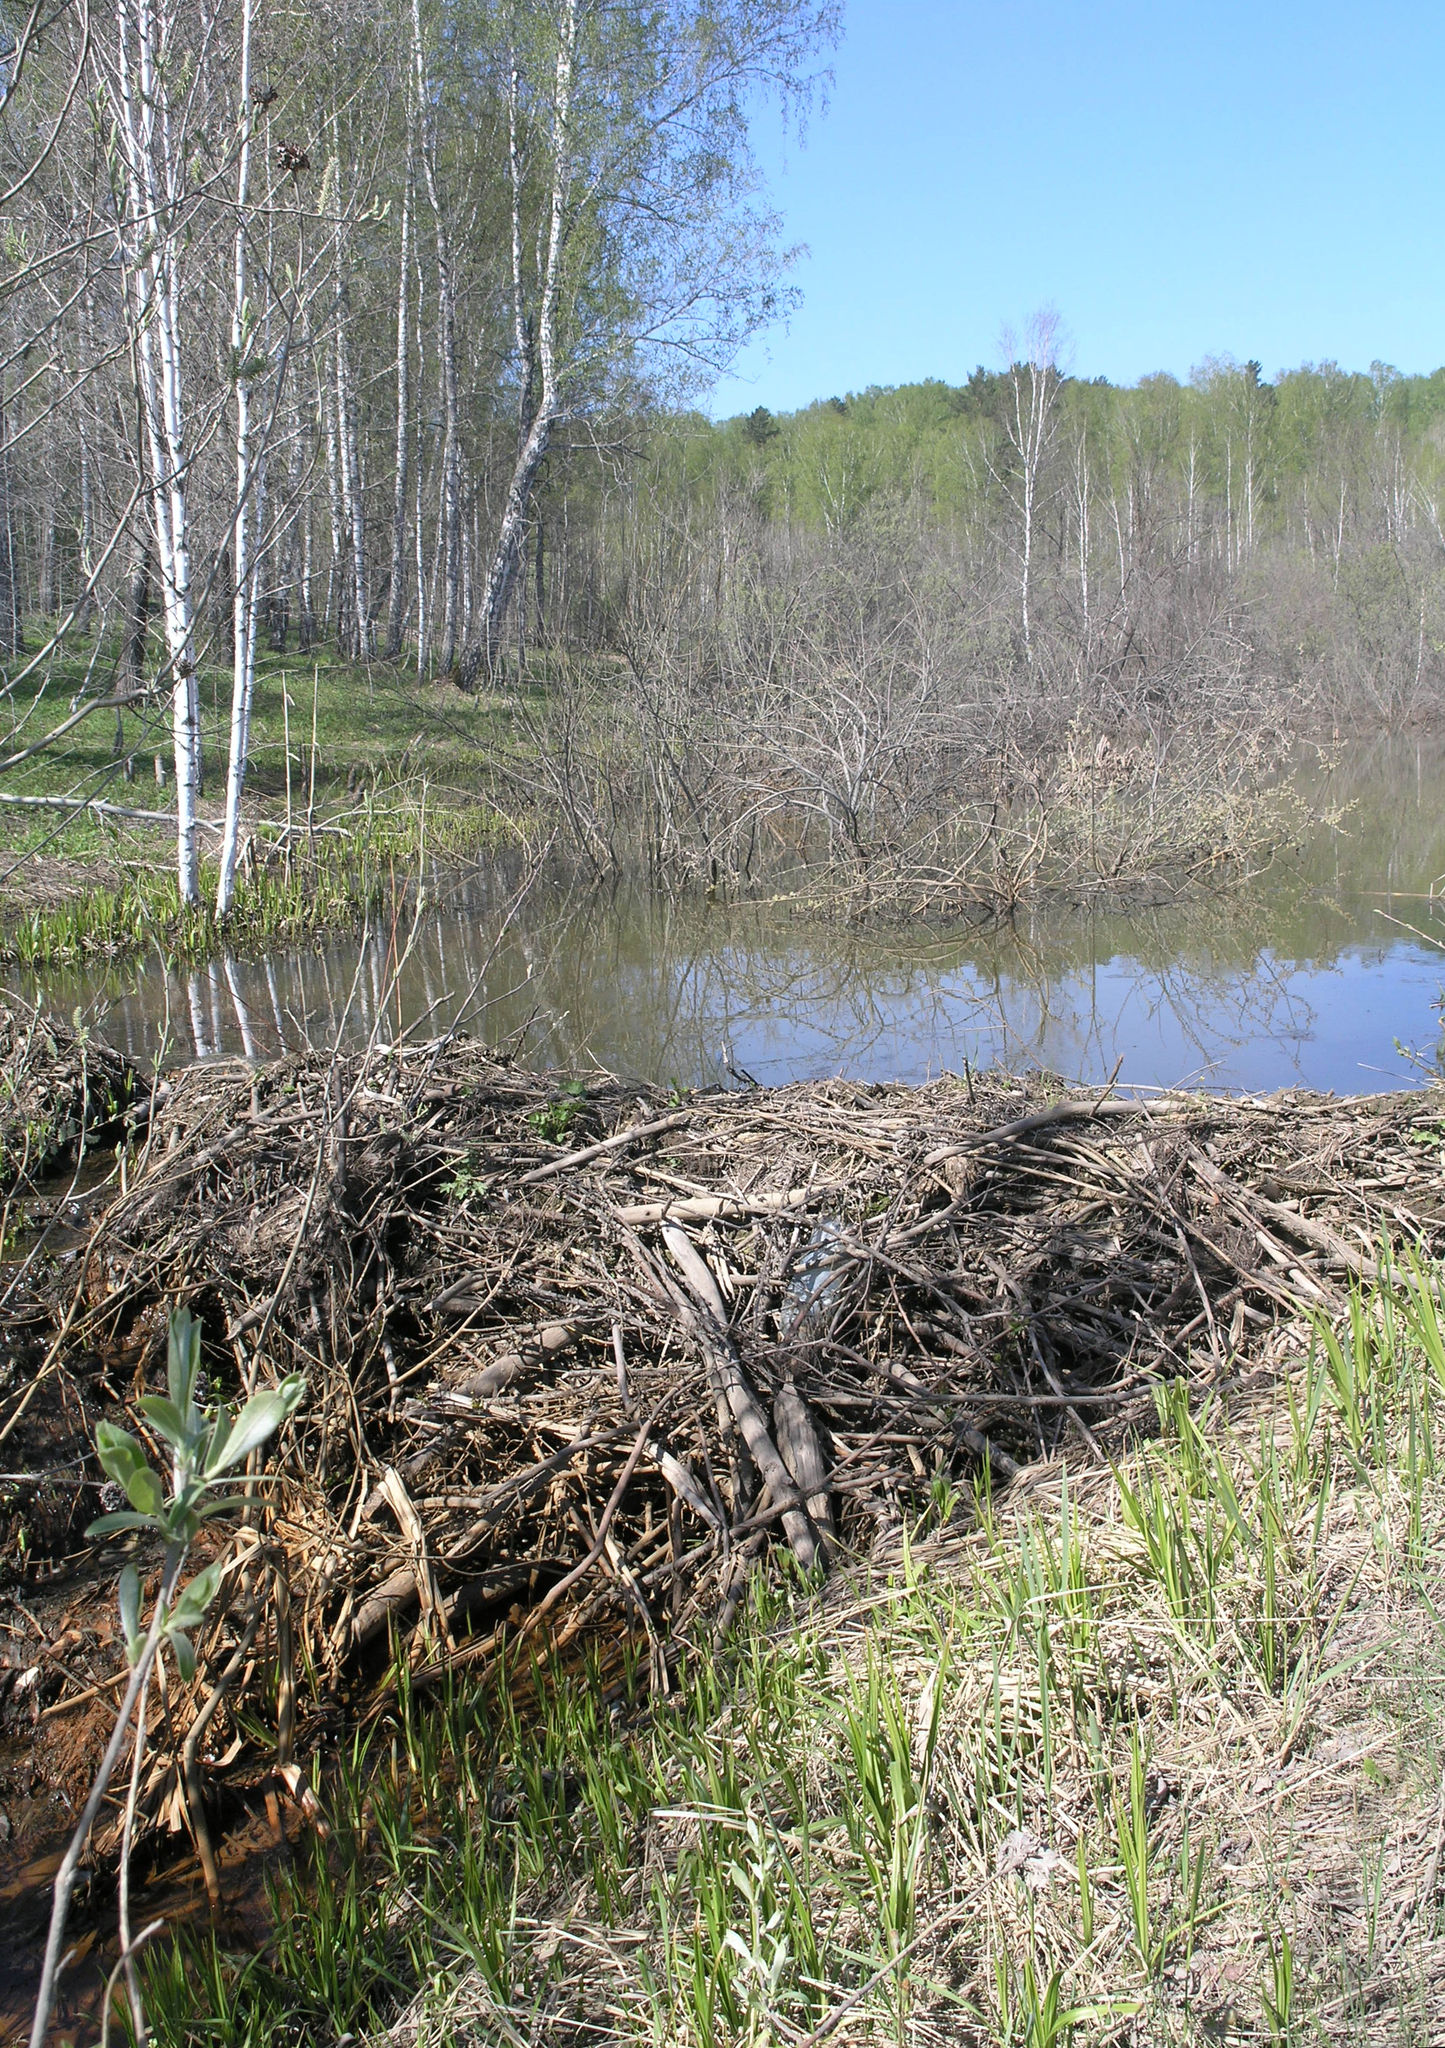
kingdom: Animalia
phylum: Chordata
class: Mammalia
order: Rodentia
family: Castoridae
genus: Castor
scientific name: Castor fiber
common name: Eurasian beaver
